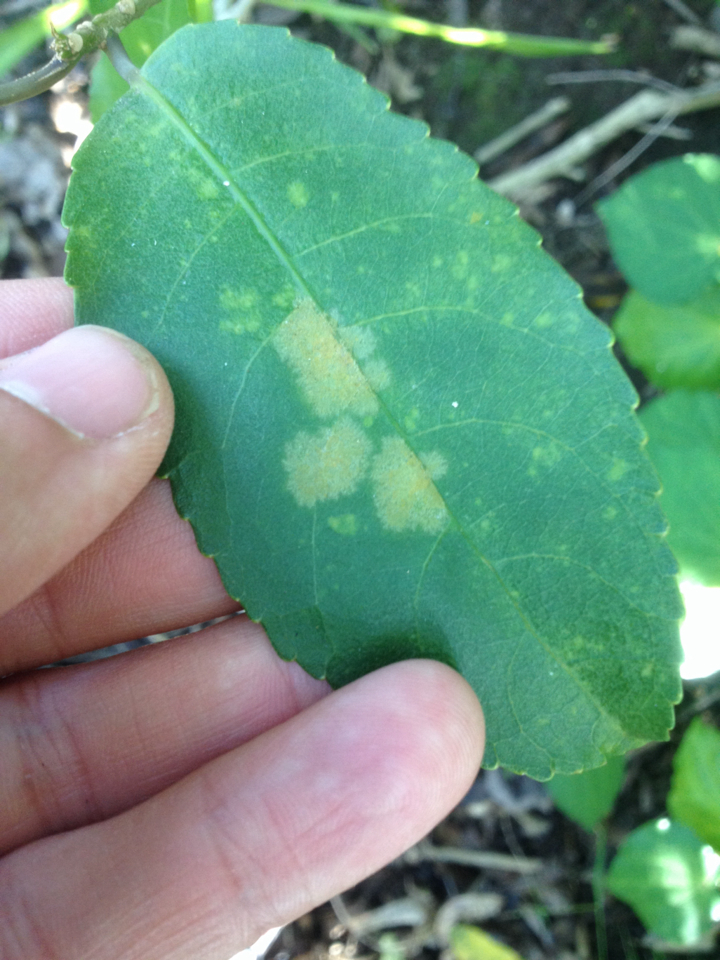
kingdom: Plantae
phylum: Chlorophyta
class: Ulvophyceae
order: Trentepohliales
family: Trentepohliaceae
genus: Cephaleuros
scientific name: Cephaleuros
